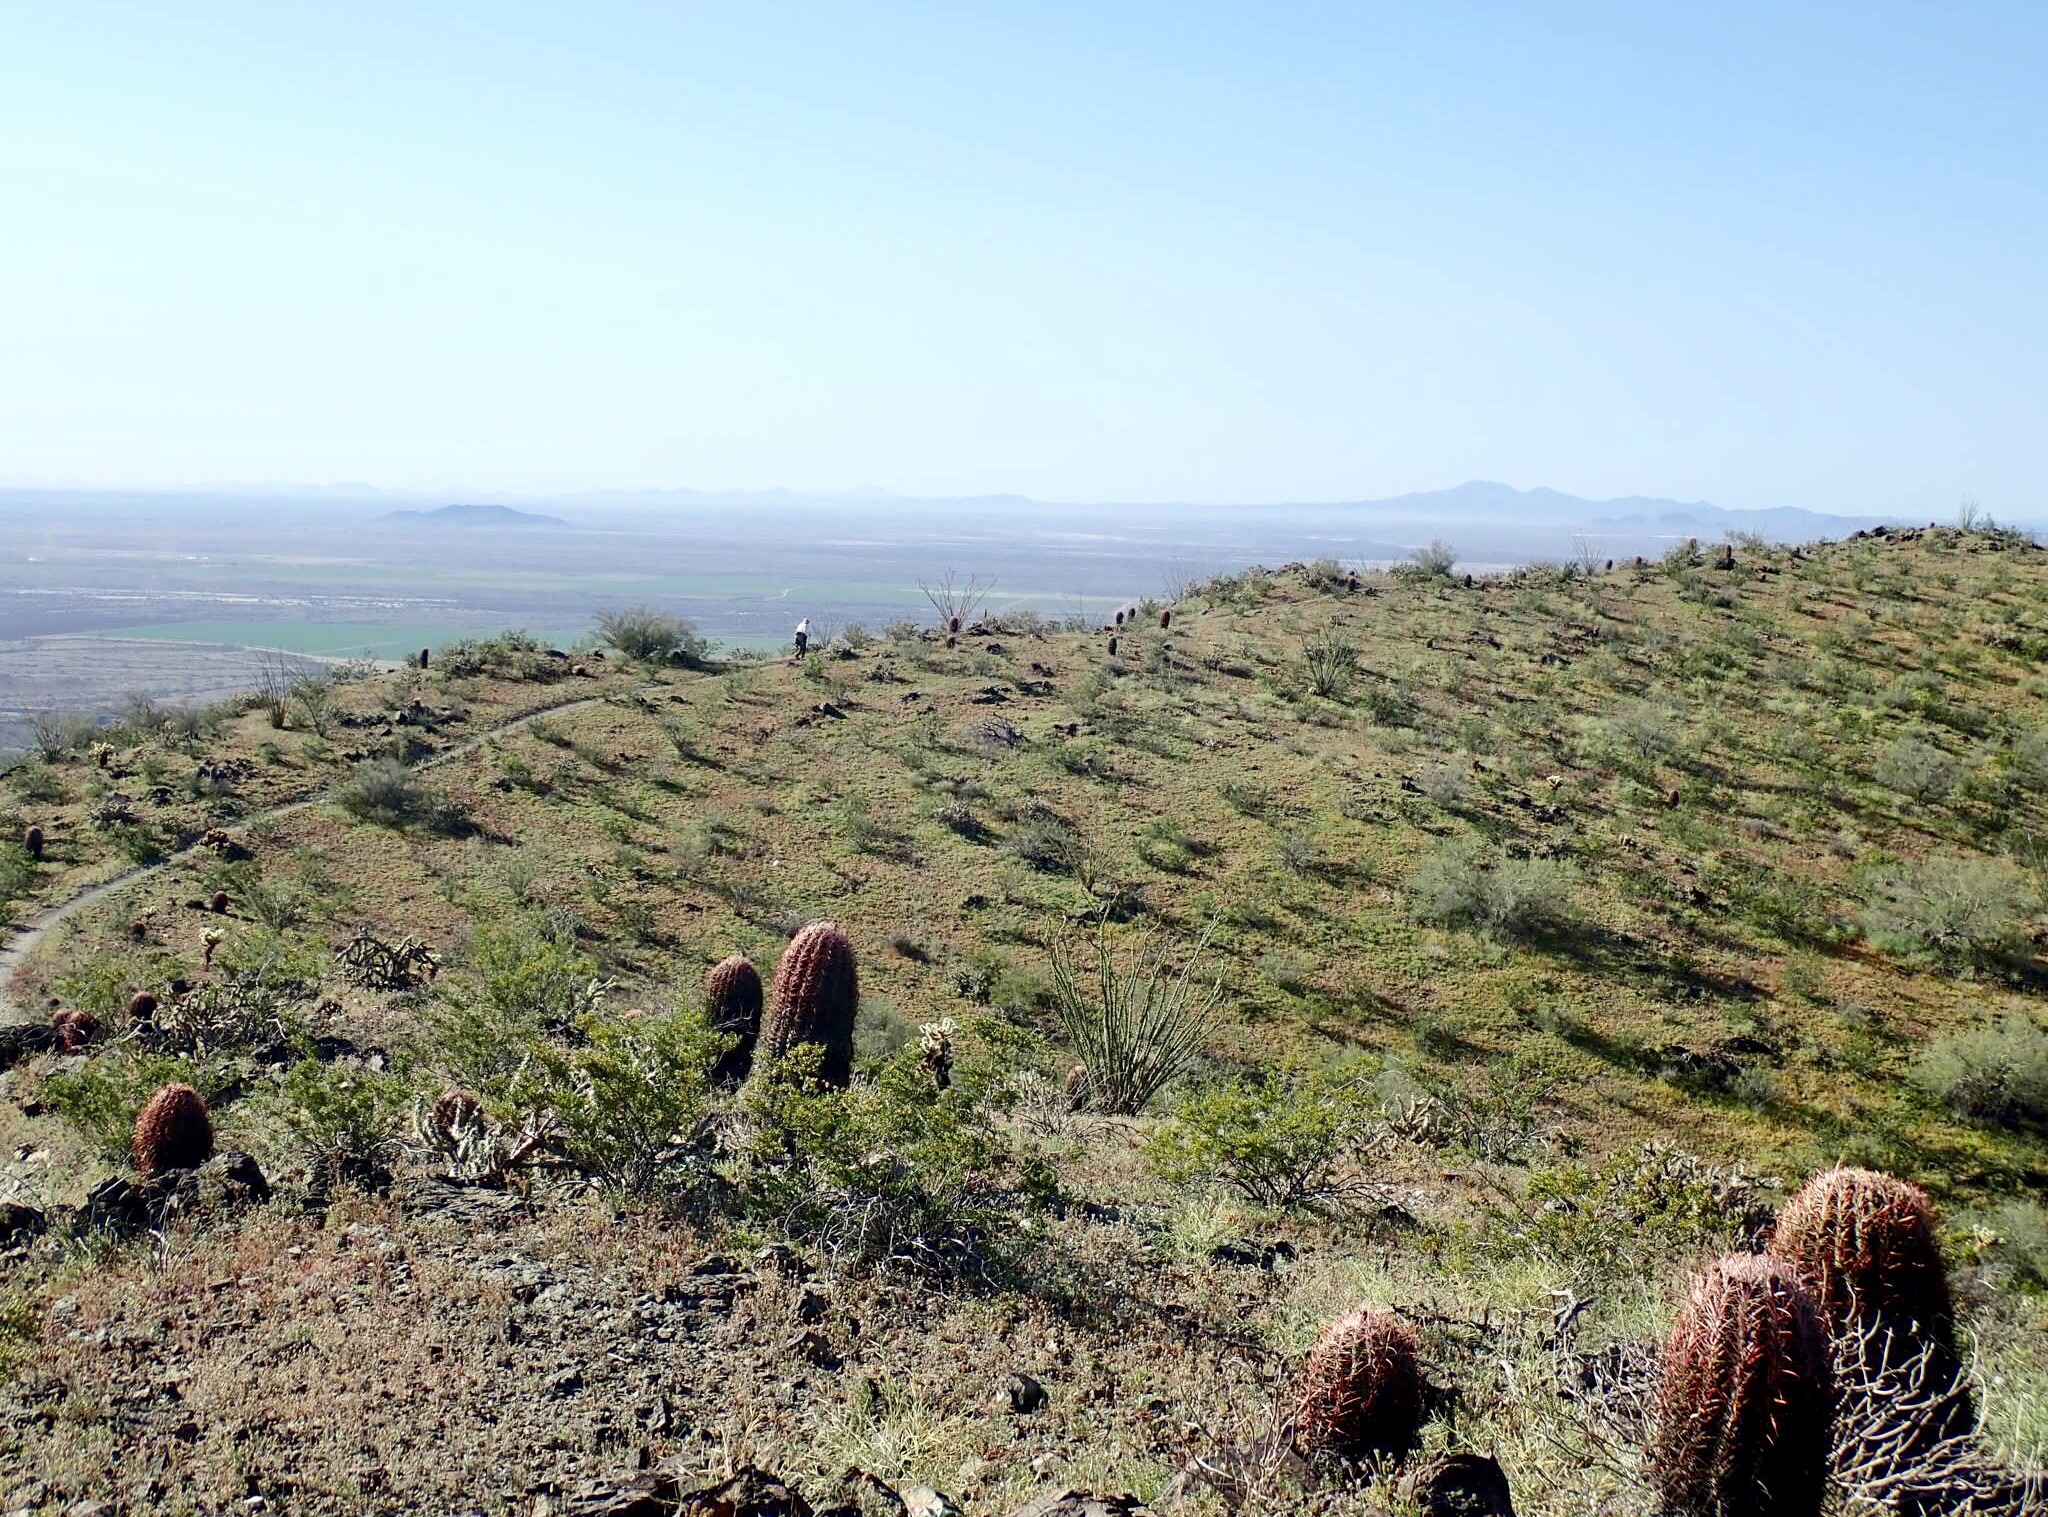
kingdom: Plantae
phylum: Tracheophyta
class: Magnoliopsida
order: Caryophyllales
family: Cactaceae
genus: Ferocactus
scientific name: Ferocactus cylindraceus
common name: California barrel cactus
